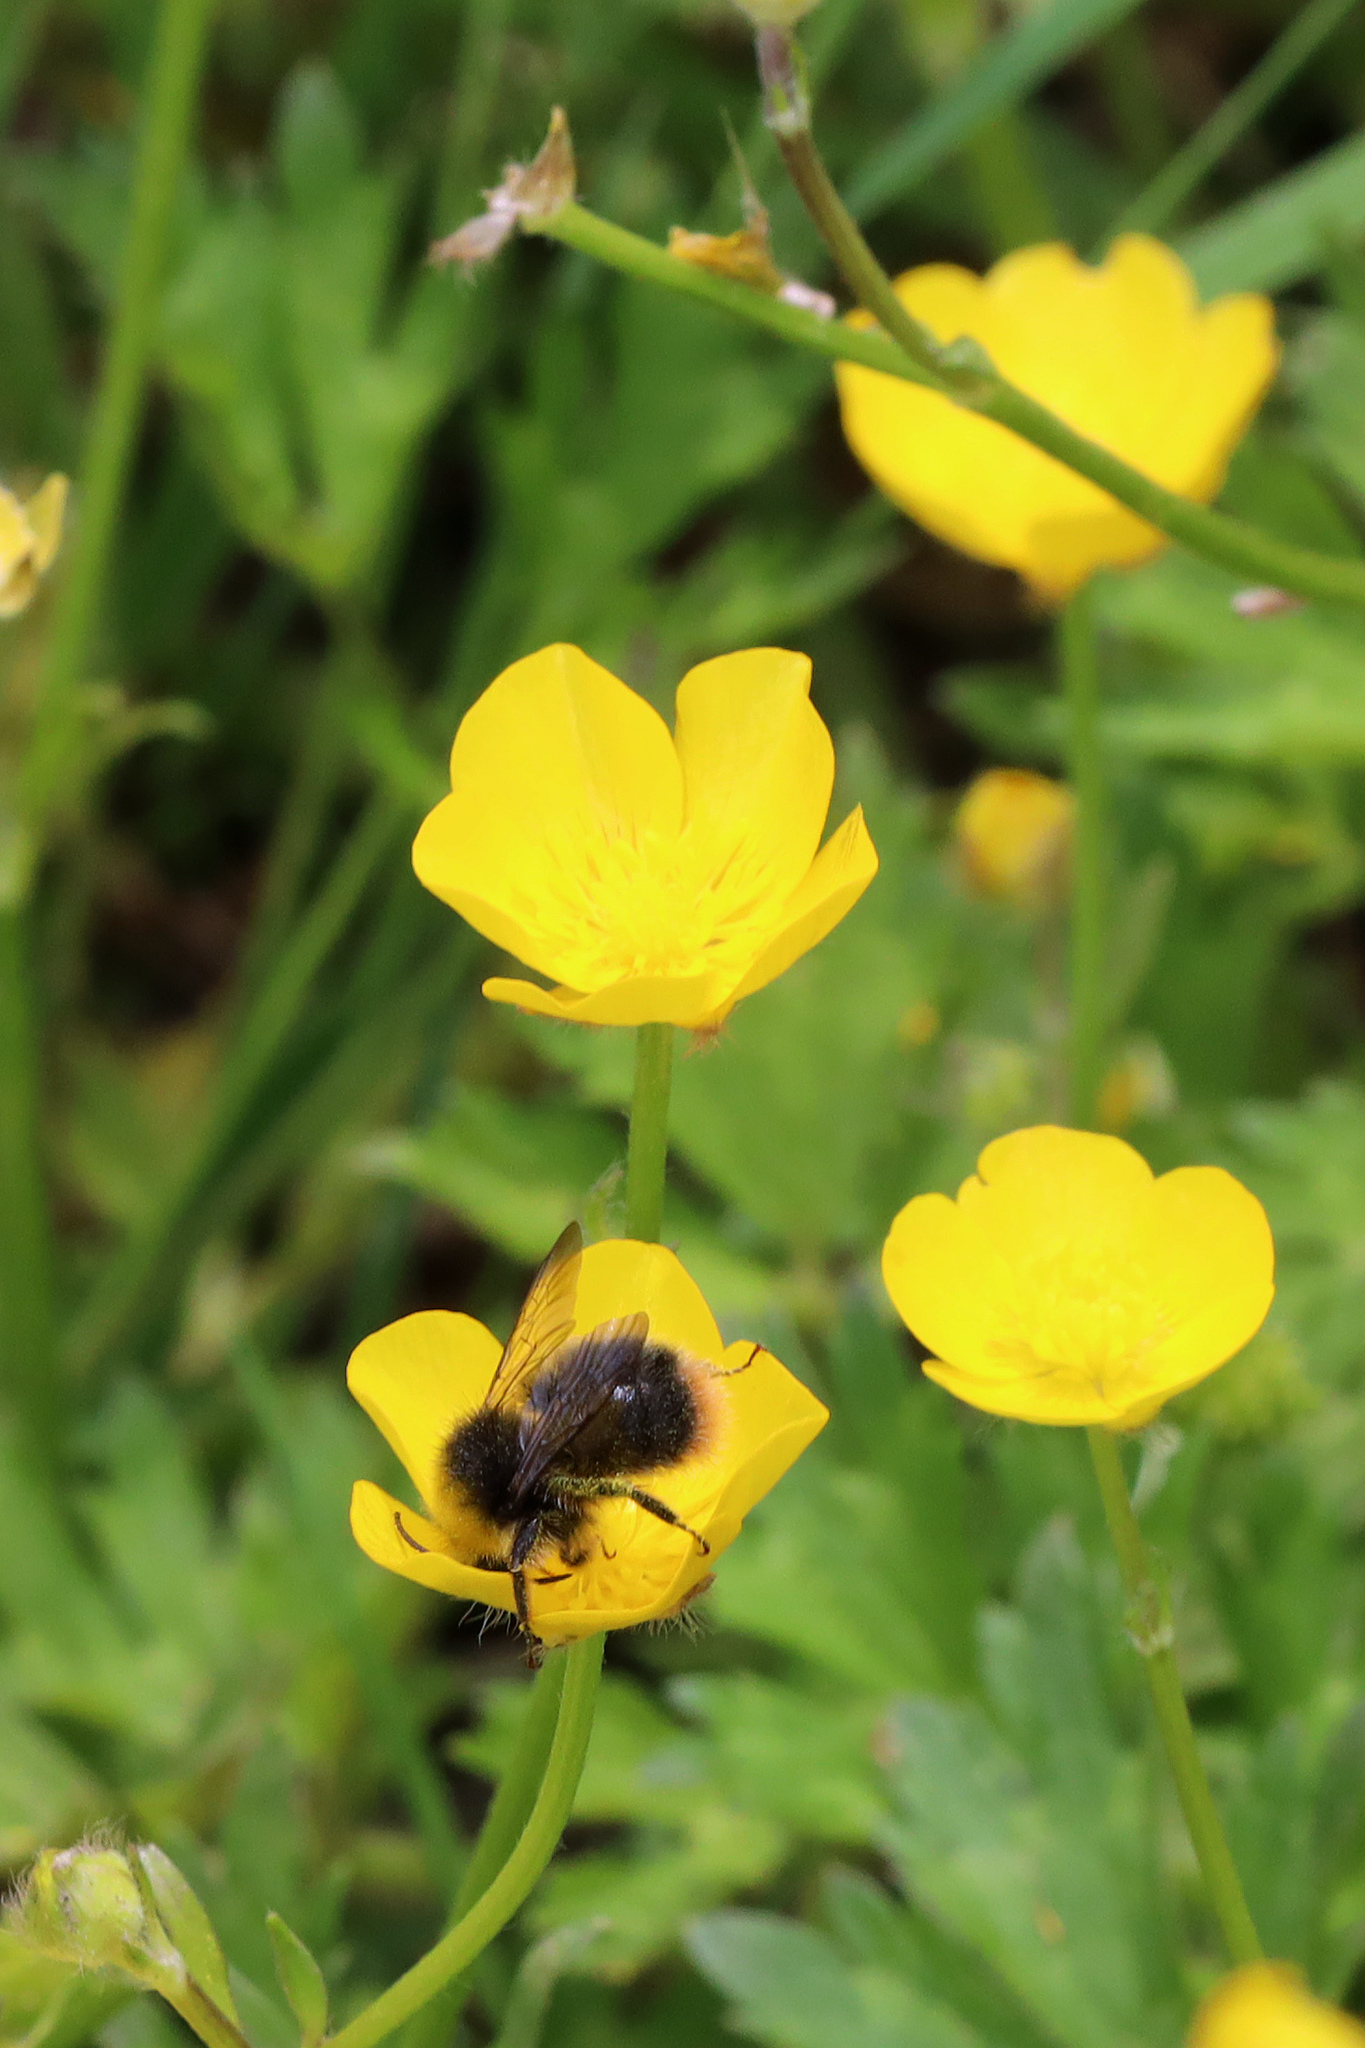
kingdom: Animalia
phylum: Arthropoda
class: Insecta
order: Hymenoptera
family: Apidae
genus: Bombus
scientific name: Bombus pratorum
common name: Early humble-bee
